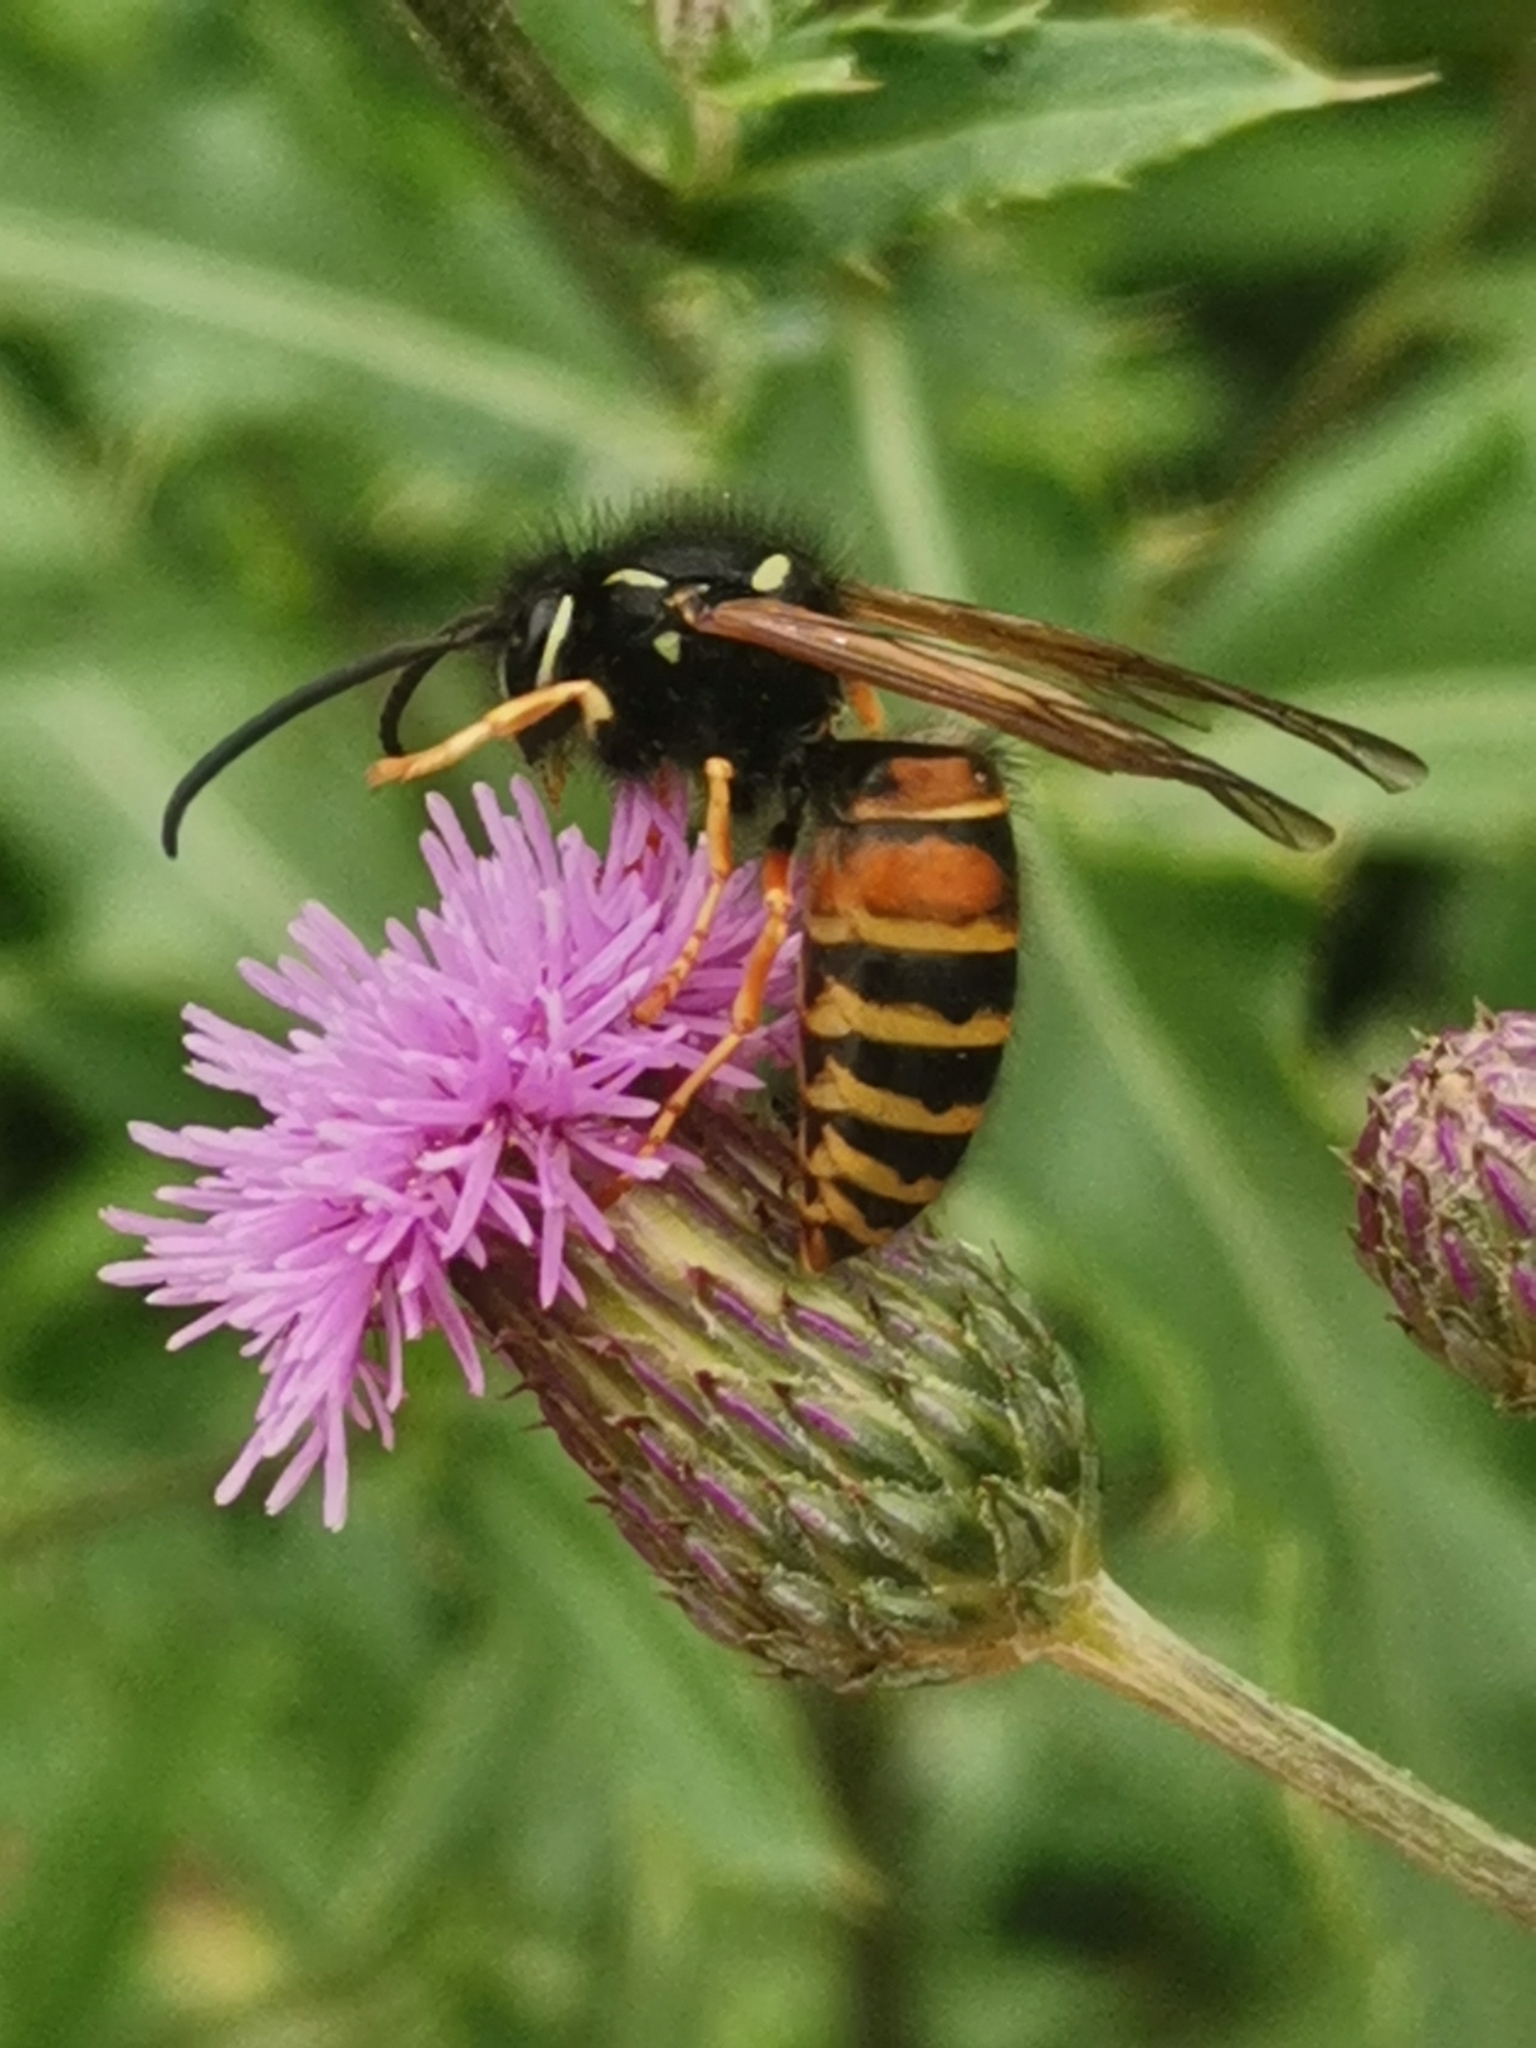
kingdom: Animalia
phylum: Arthropoda
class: Insecta
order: Hymenoptera
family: Vespidae
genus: Vespula
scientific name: Vespula rufa
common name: Red wasp
